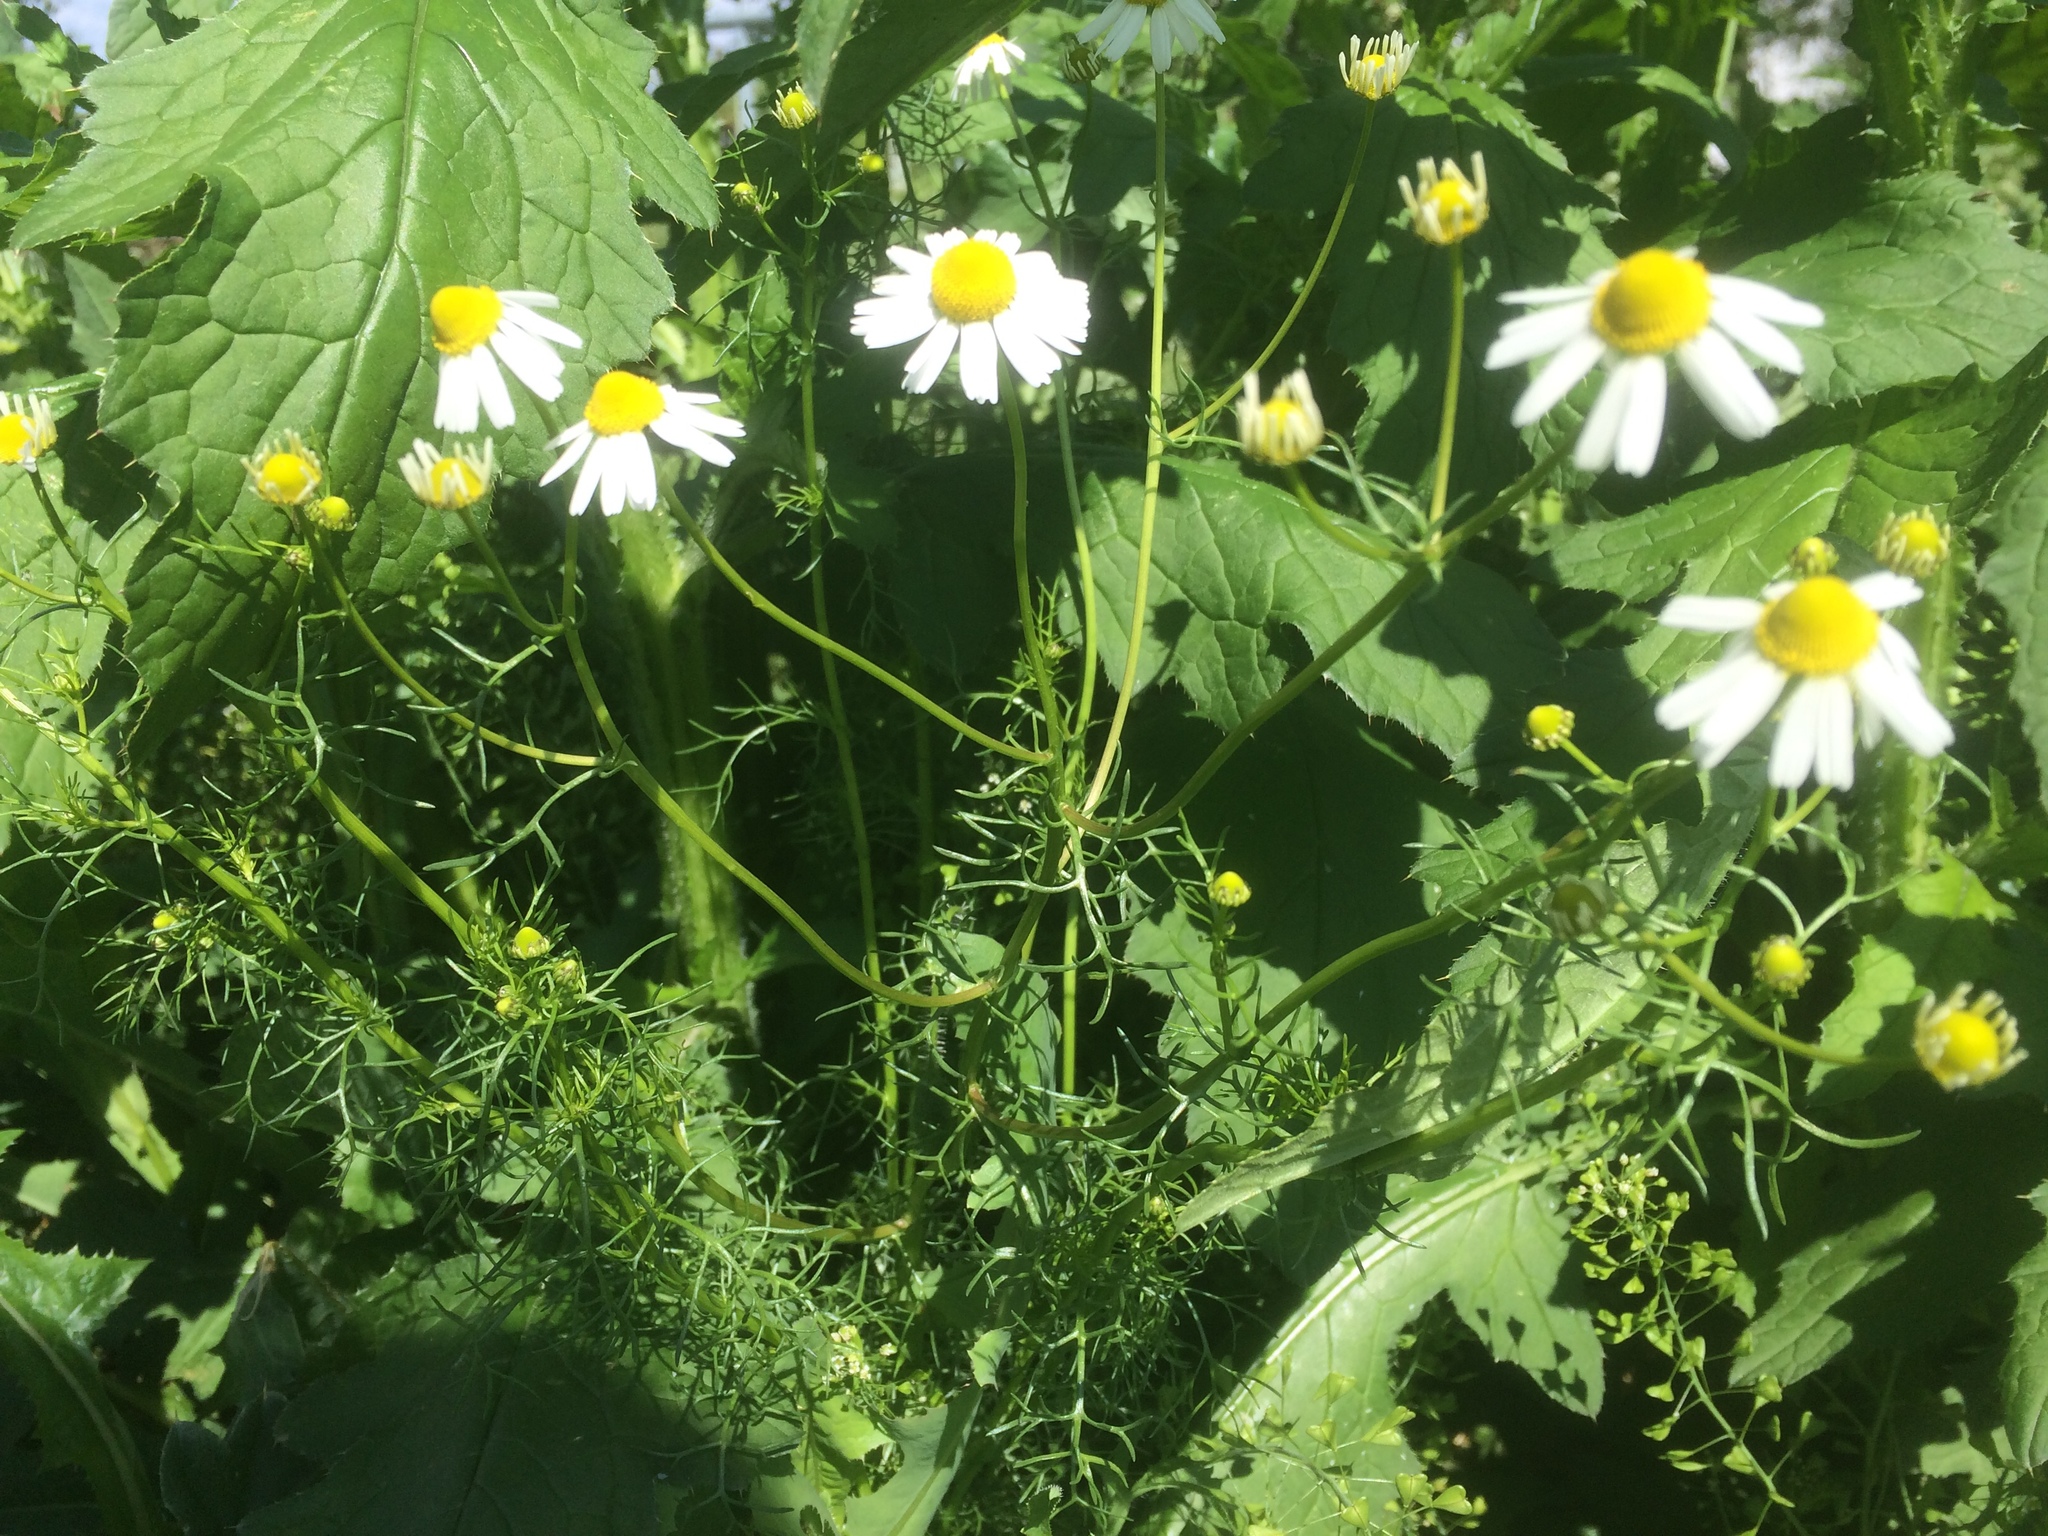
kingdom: Plantae
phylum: Tracheophyta
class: Magnoliopsida
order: Asterales
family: Asteraceae
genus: Tripleurospermum
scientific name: Tripleurospermum inodorum
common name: Scentless mayweed
